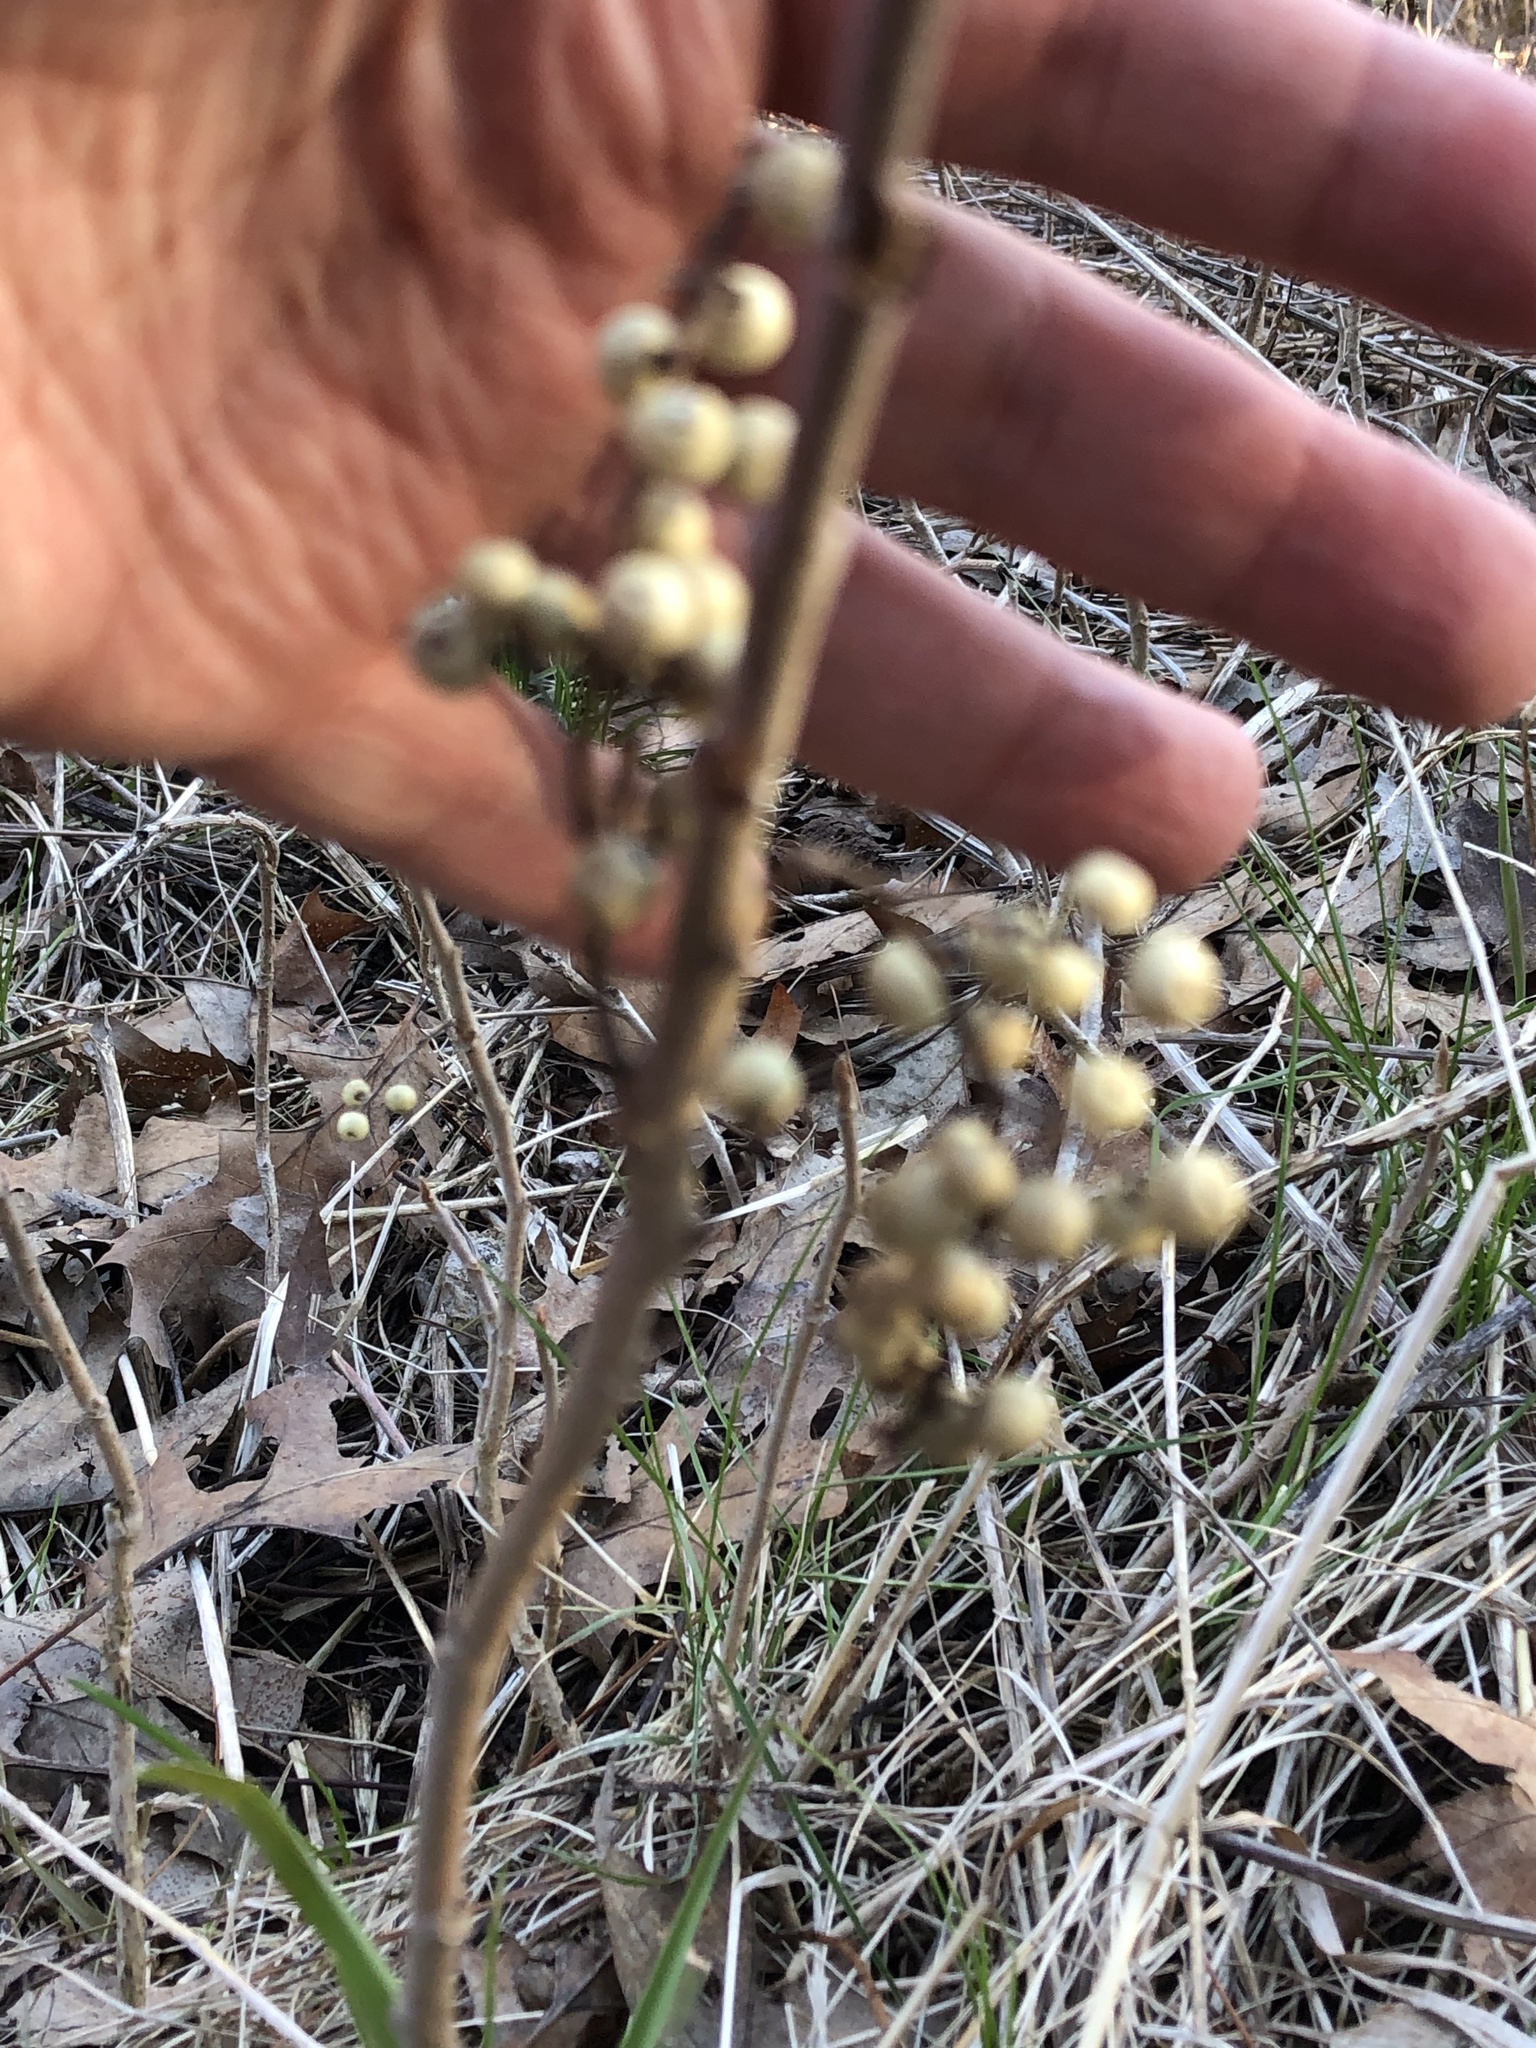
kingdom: Plantae
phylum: Tracheophyta
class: Magnoliopsida
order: Sapindales
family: Anacardiaceae
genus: Toxicodendron
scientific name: Toxicodendron rydbergii
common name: Rydberg's poison-ivy
